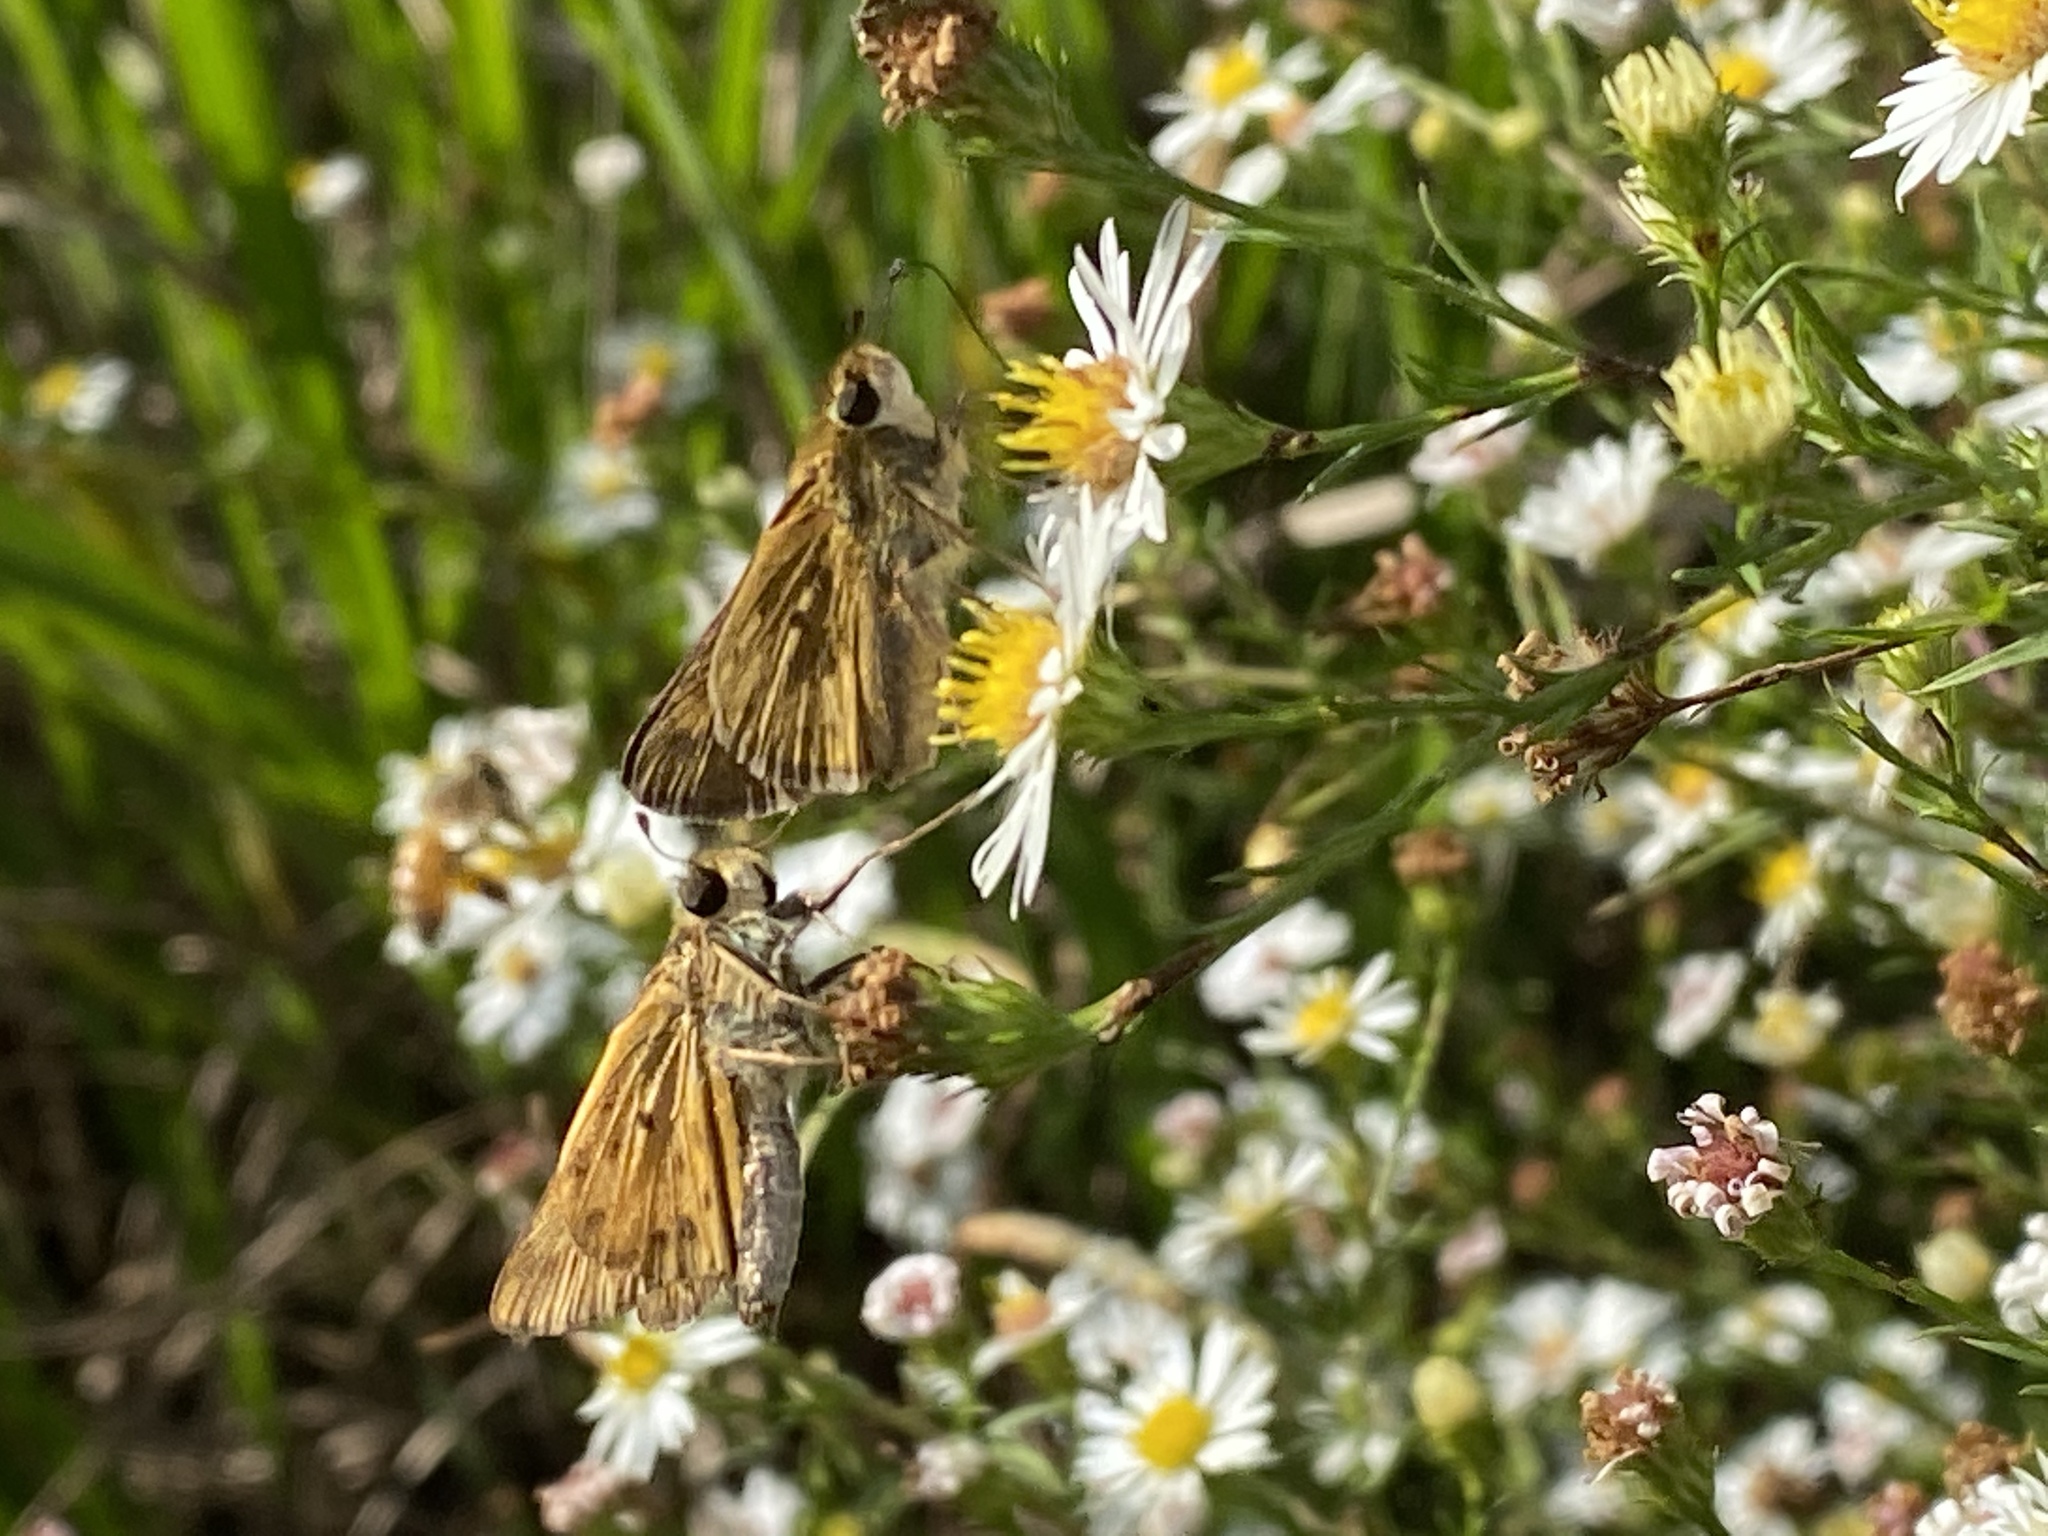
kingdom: Animalia
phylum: Arthropoda
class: Insecta
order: Lepidoptera
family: Hesperiidae
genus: Hylephila
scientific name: Hylephila phyleus
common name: Fiery skipper
